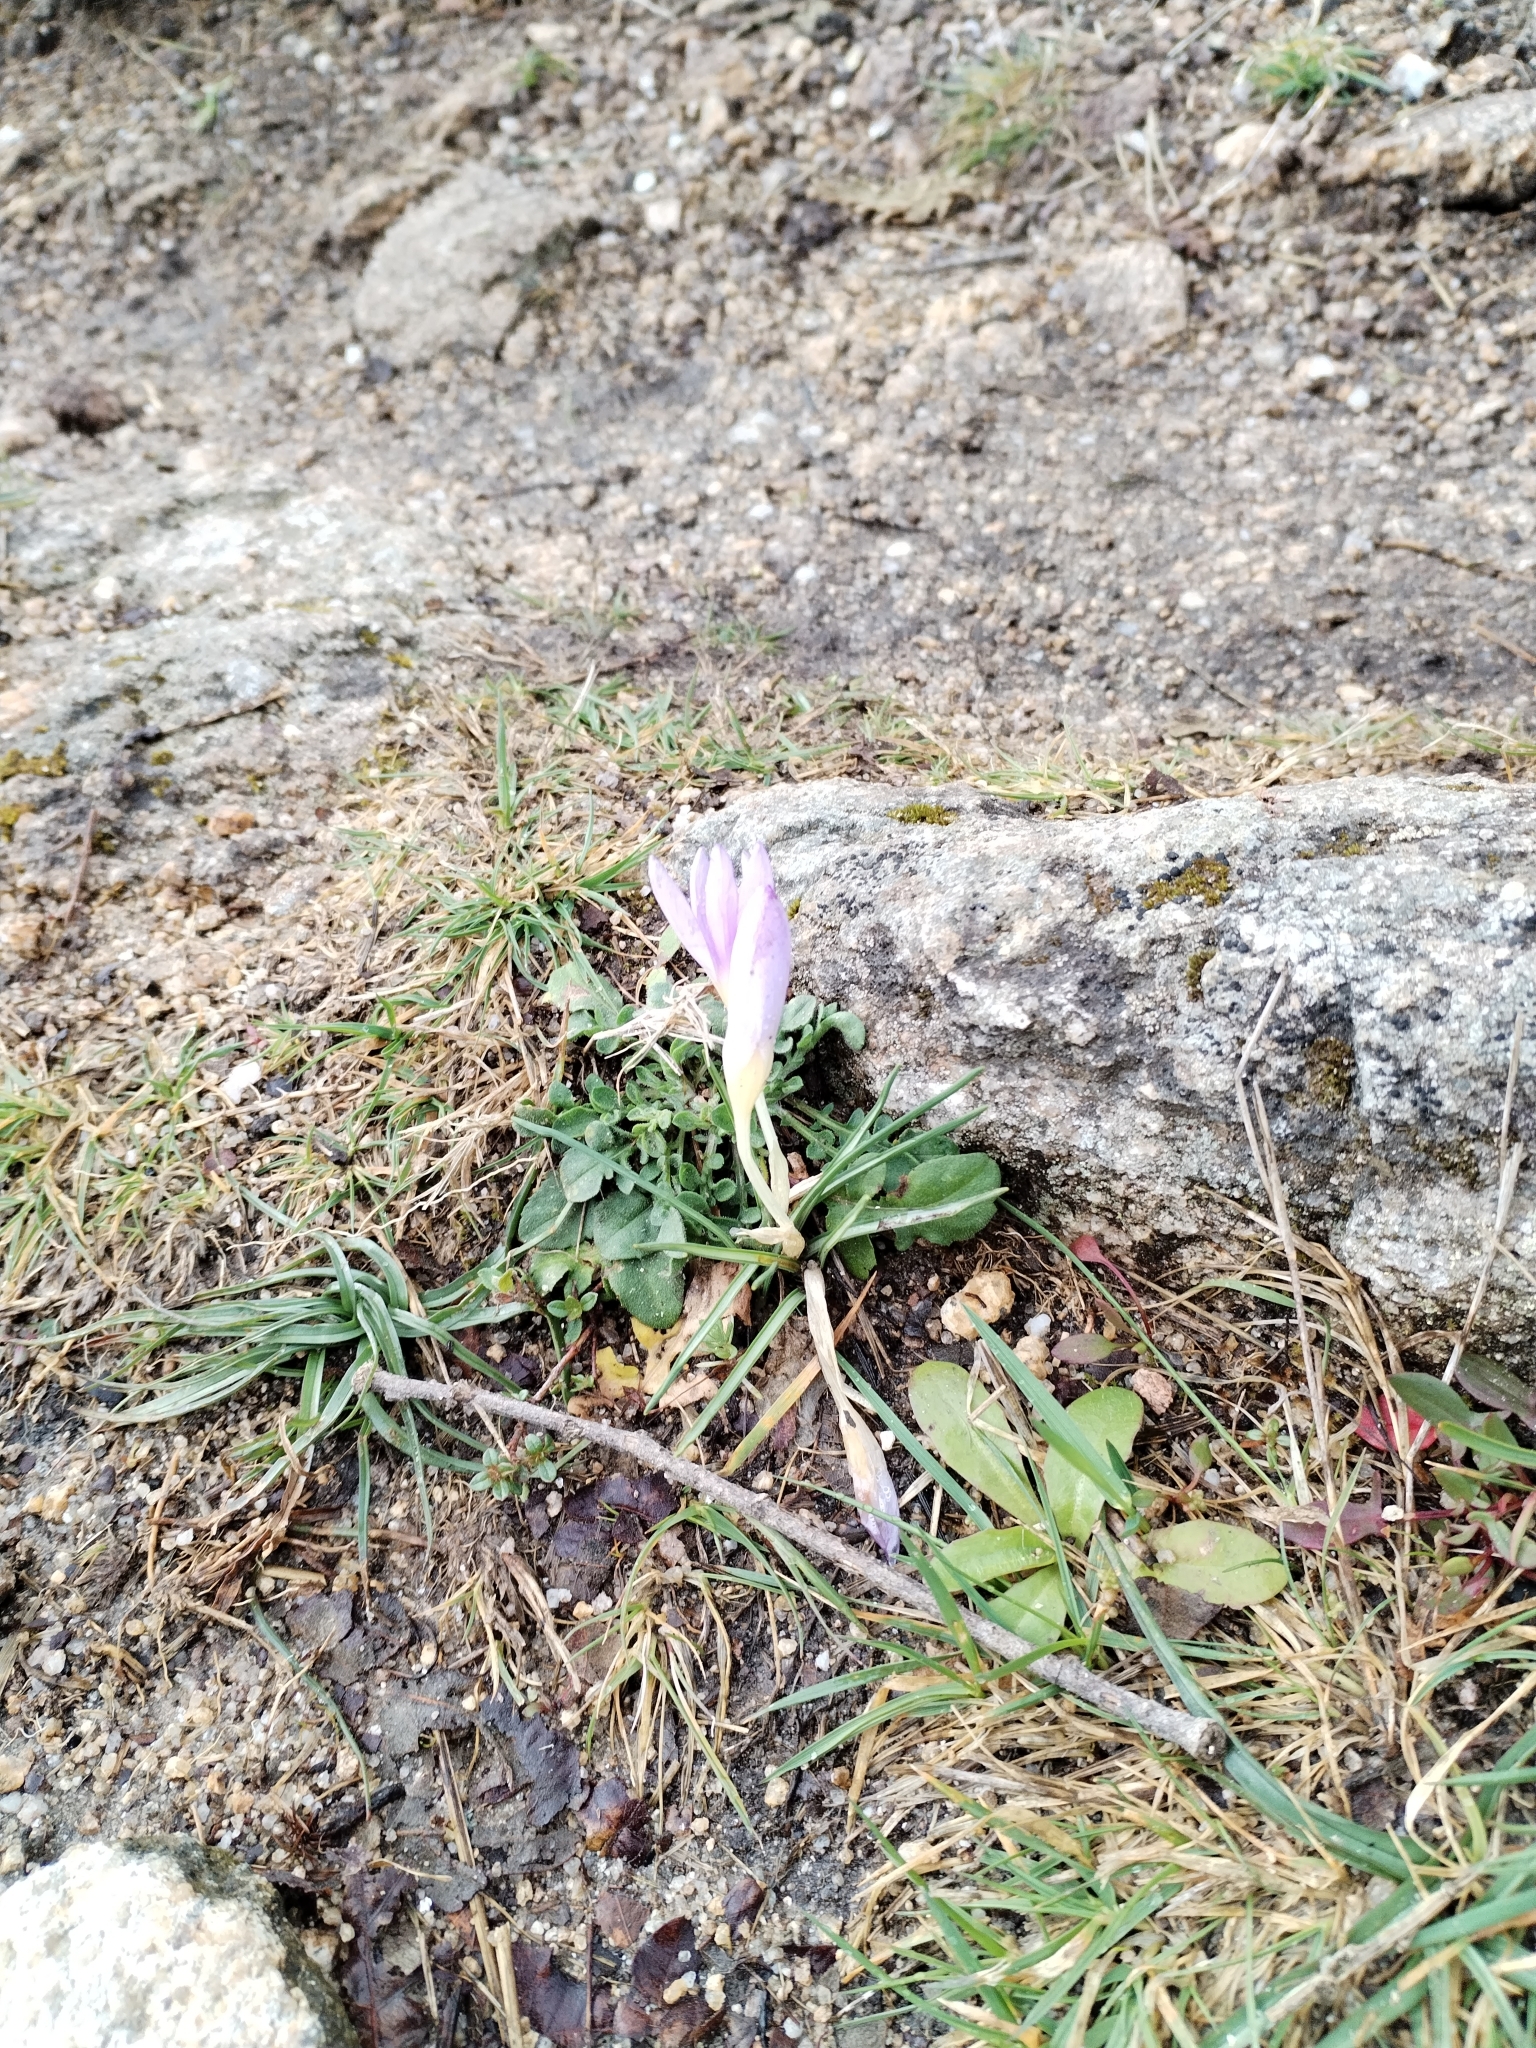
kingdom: Plantae
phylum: Tracheophyta
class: Liliopsida
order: Asparagales
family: Iridaceae
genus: Crocus
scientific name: Crocus carpetanus
